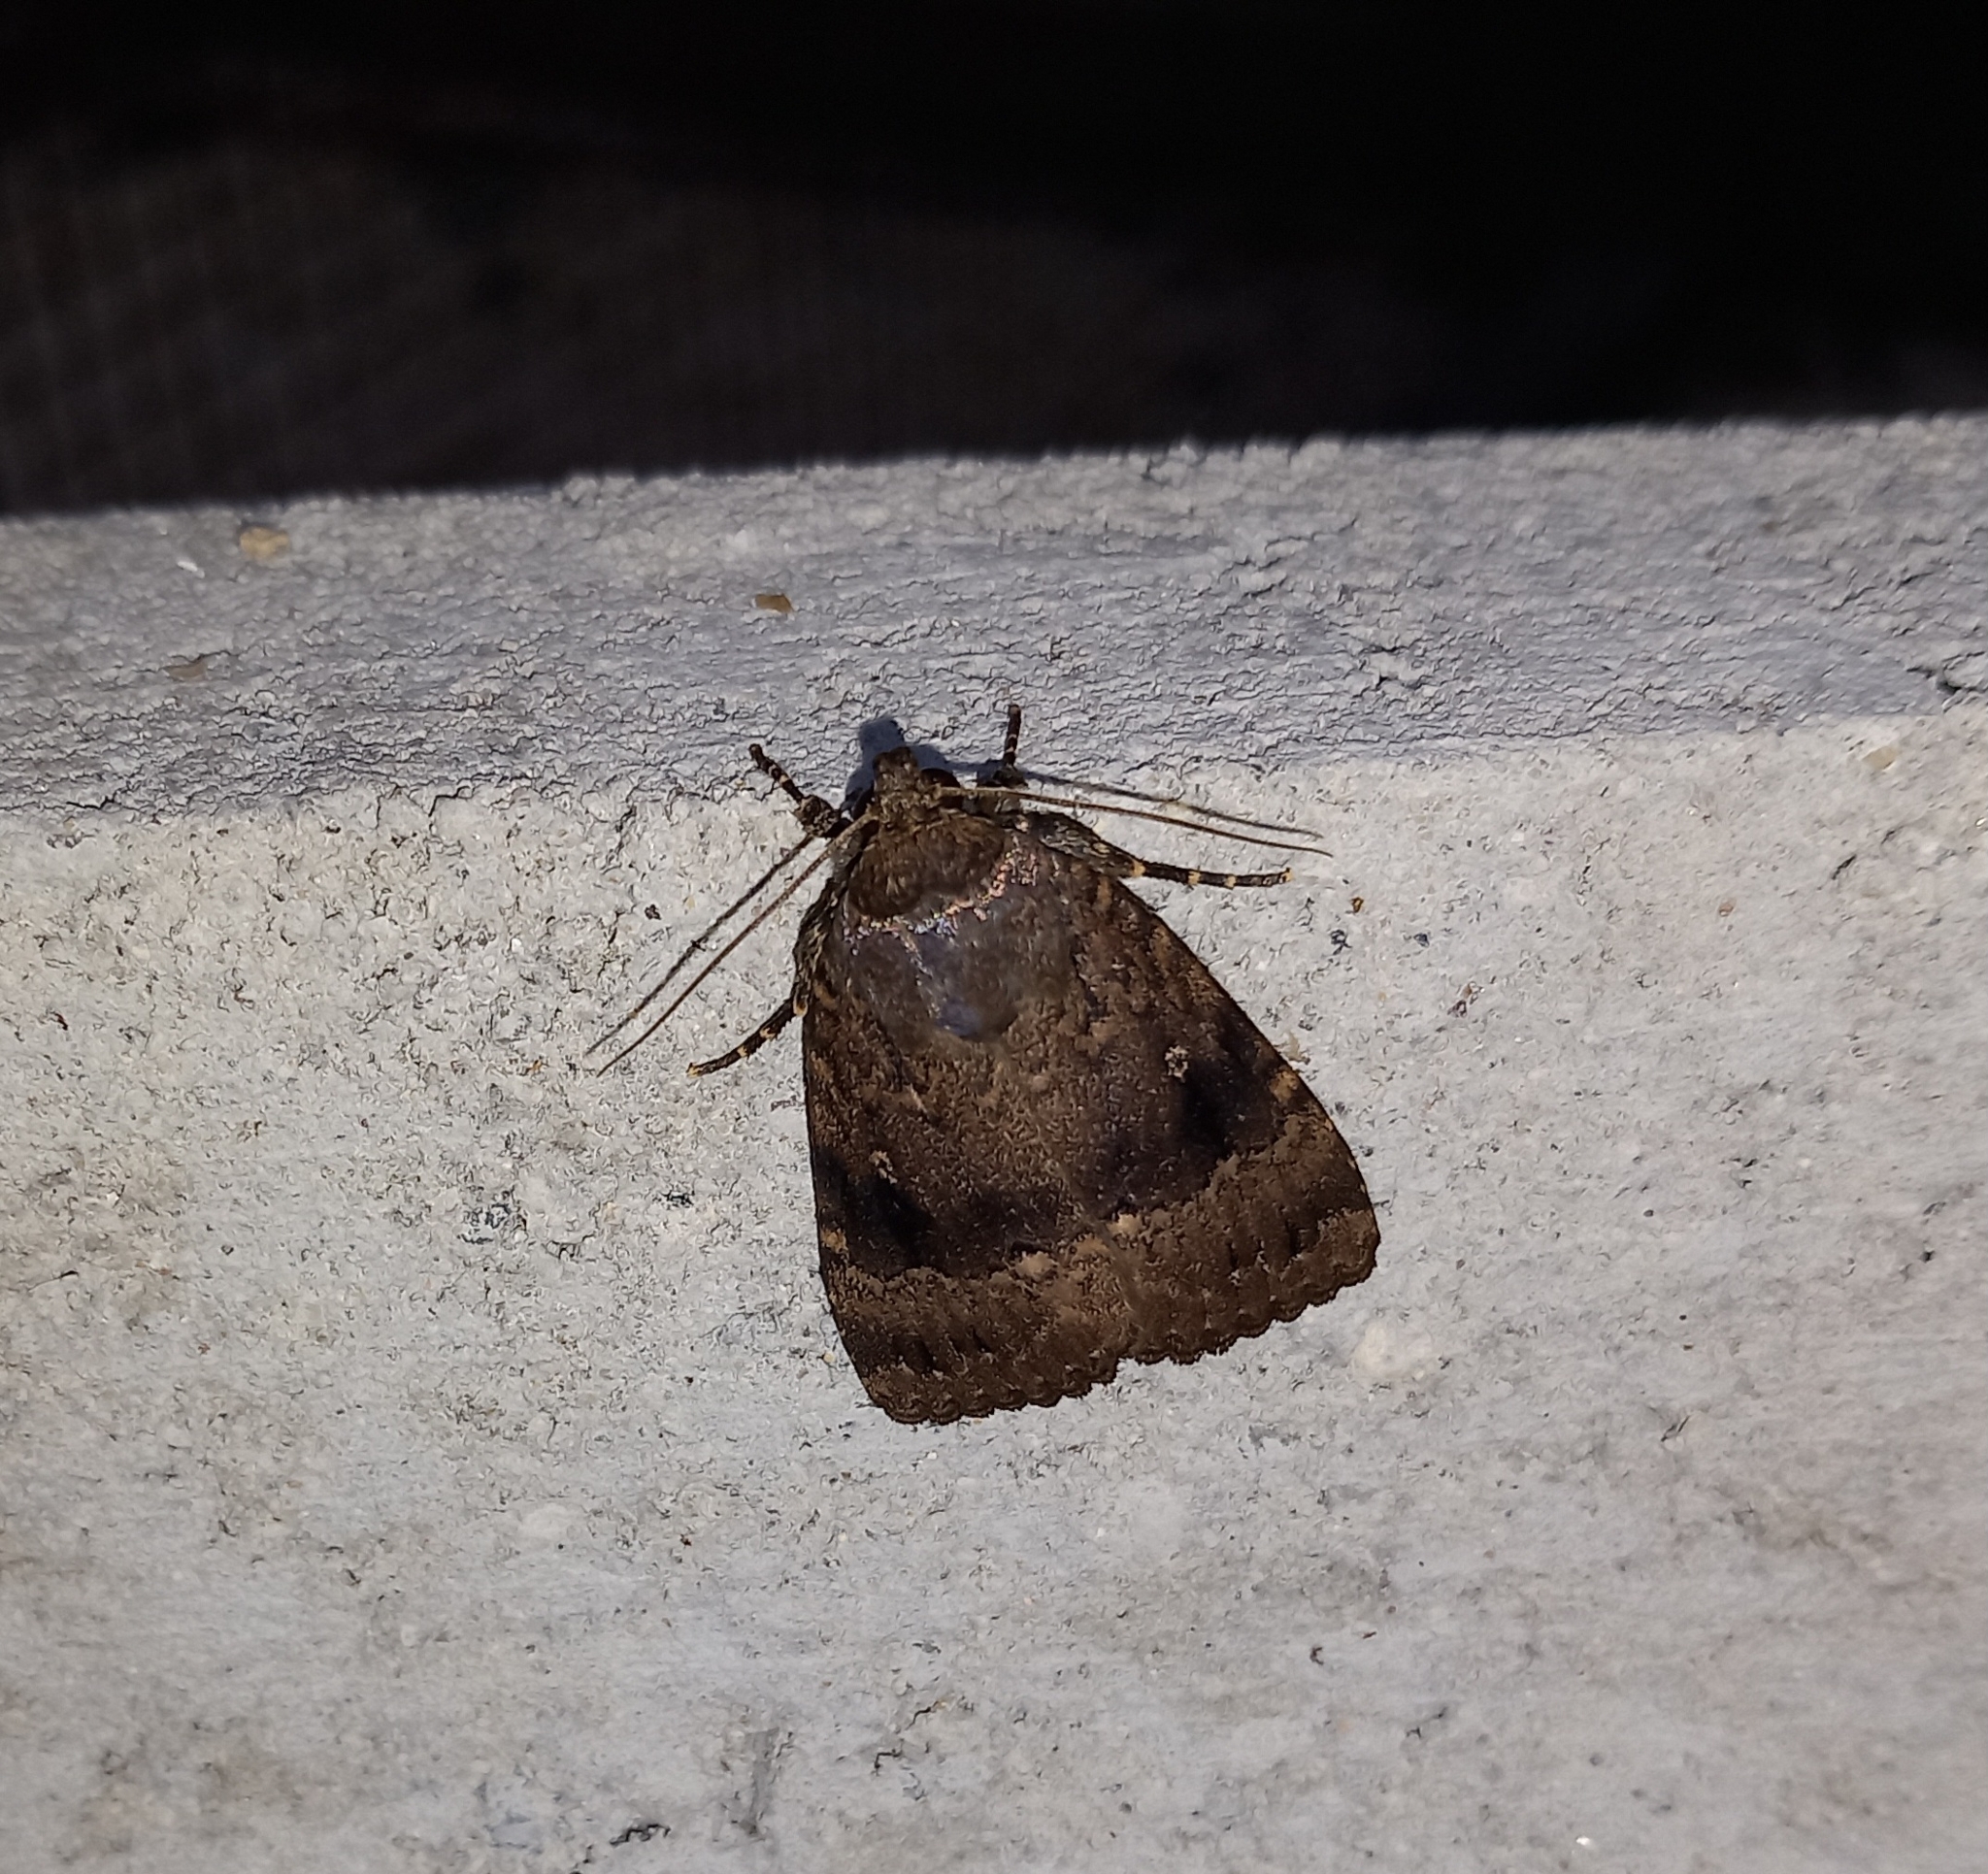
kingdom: Animalia
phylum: Arthropoda
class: Insecta
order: Lepidoptera
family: Noctuidae
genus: Amphipyra
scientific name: Amphipyra pyramidea
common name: Copper underwing
